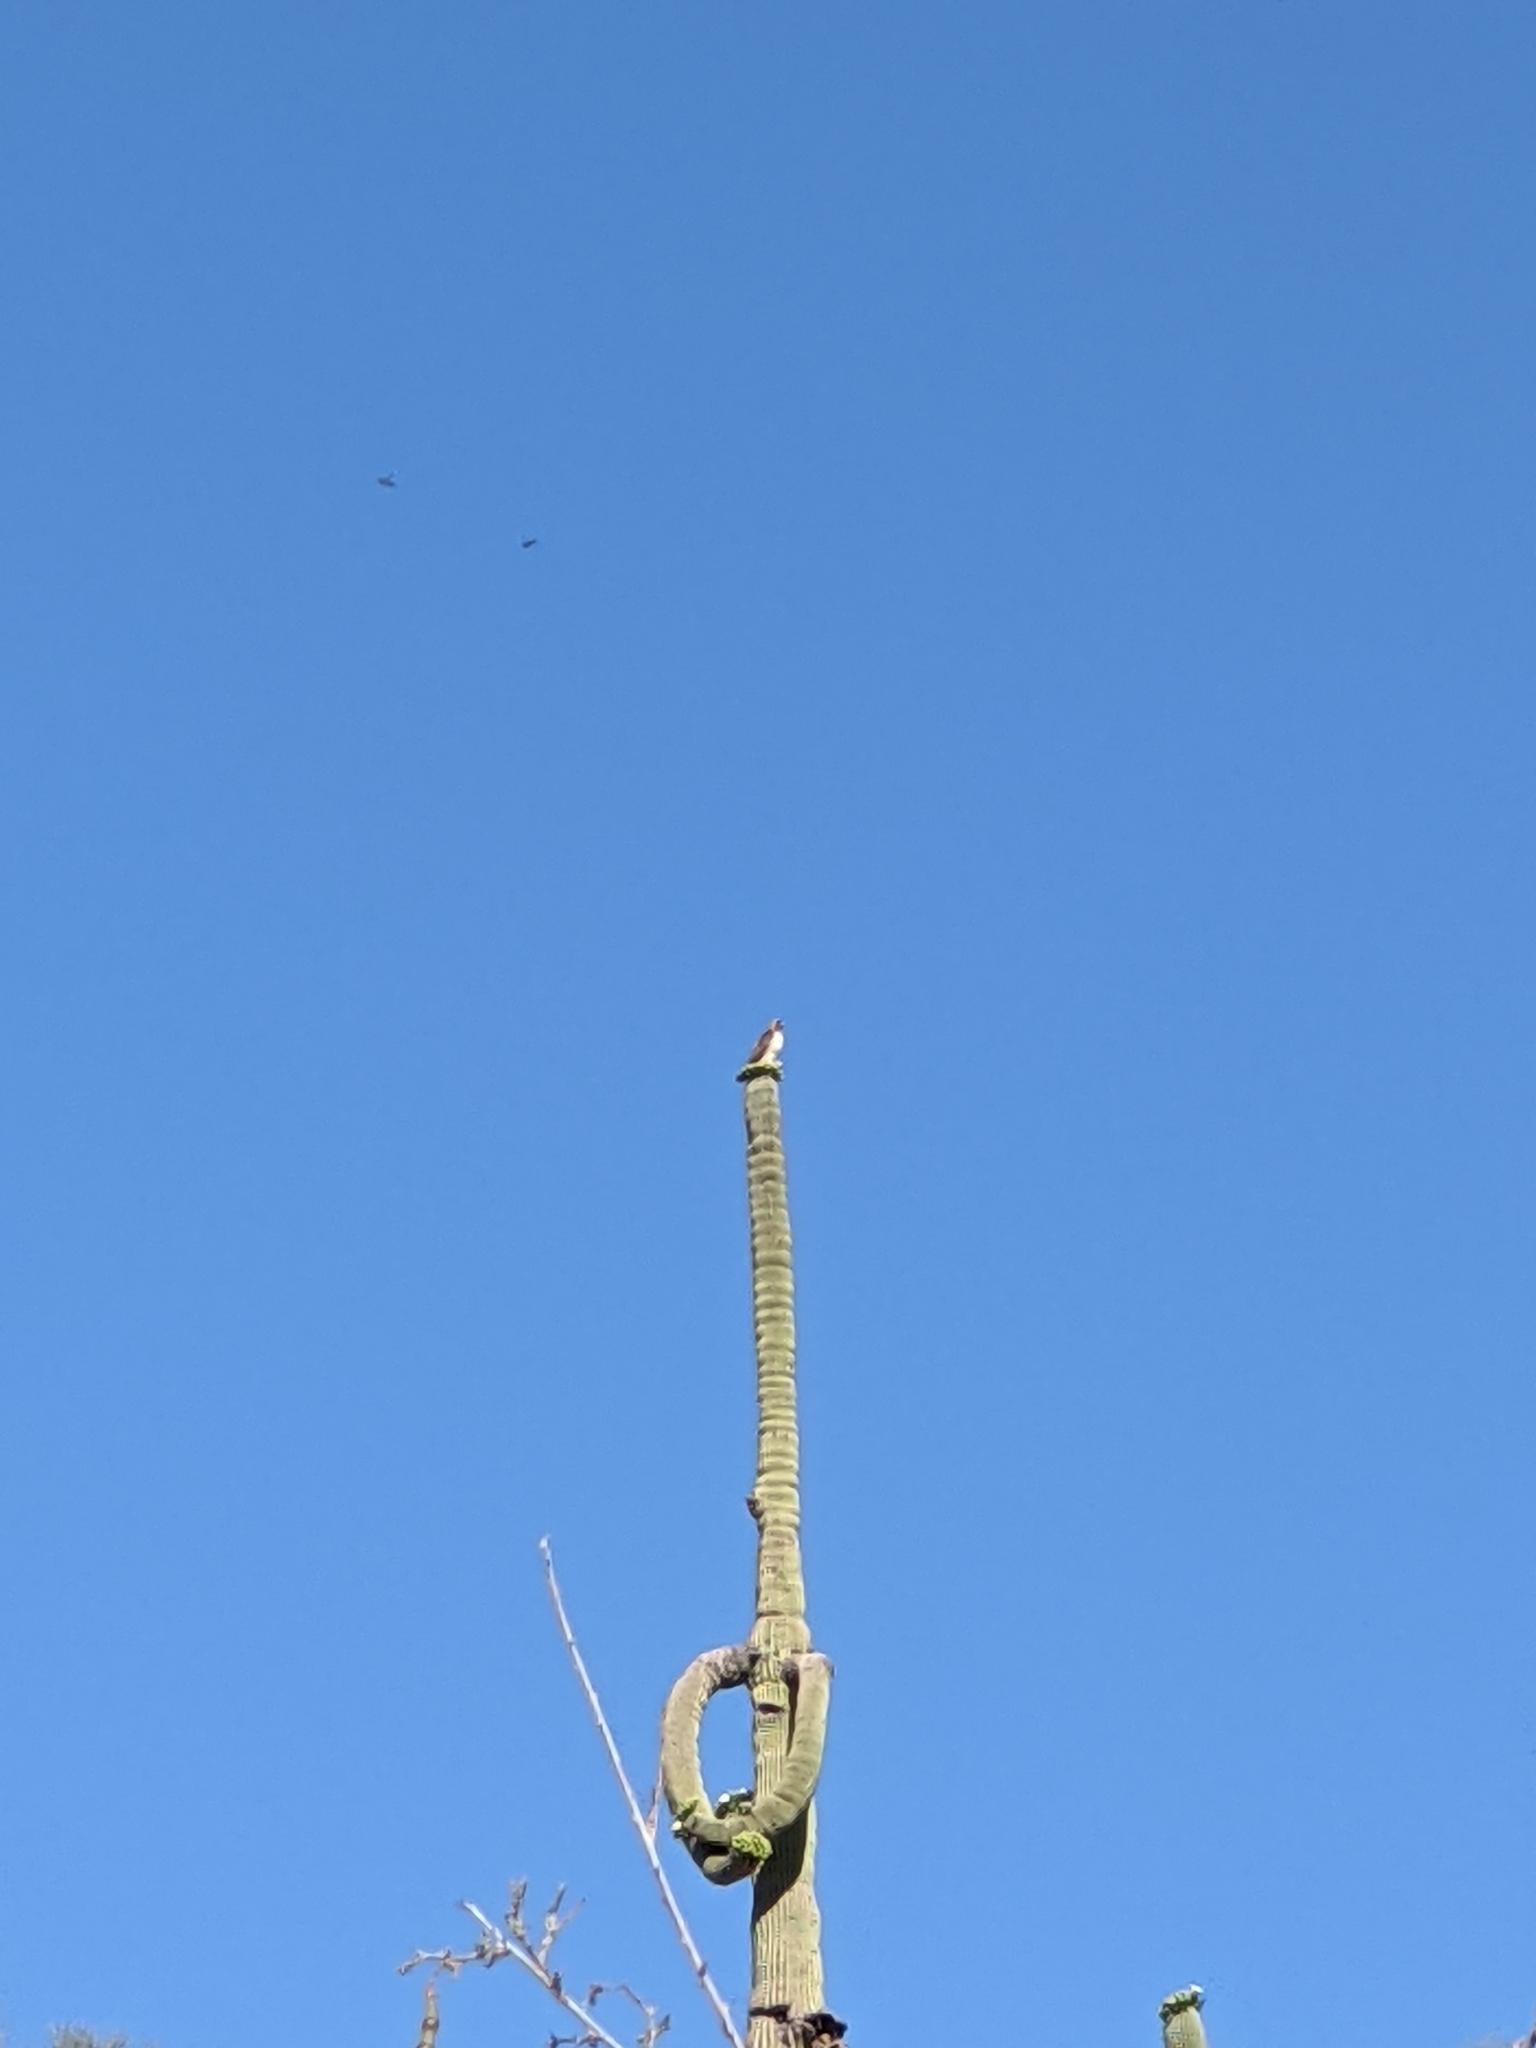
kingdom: Animalia
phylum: Chordata
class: Aves
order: Accipitriformes
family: Accipitridae
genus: Buteo
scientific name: Buteo jamaicensis
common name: Red-tailed hawk
